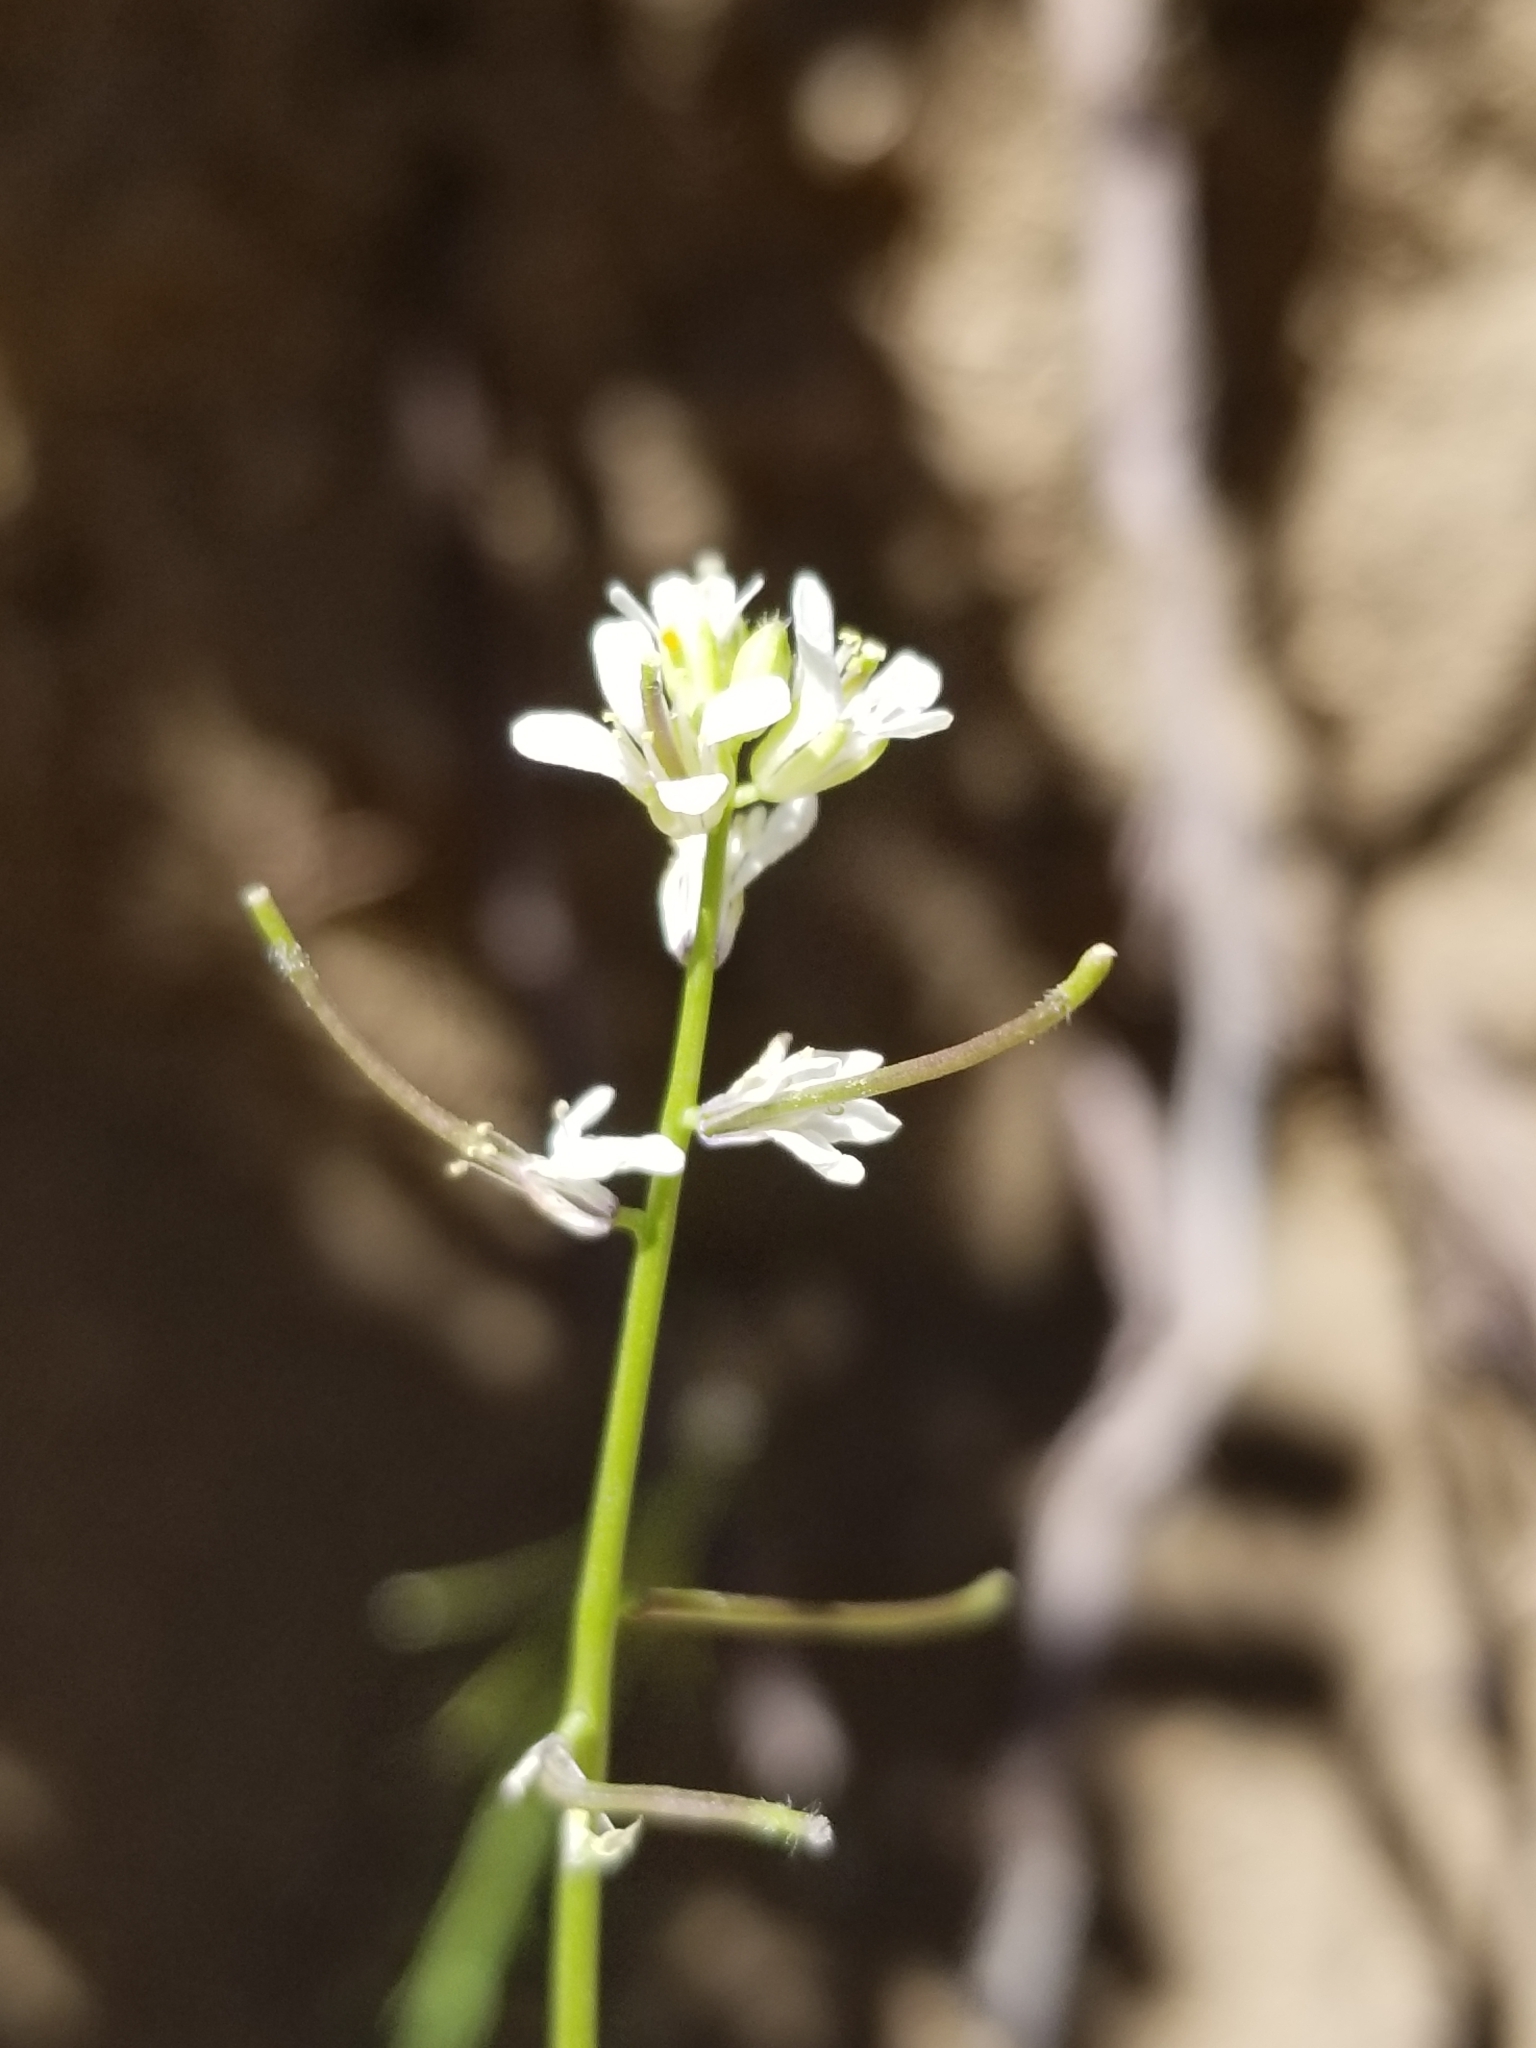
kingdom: Plantae
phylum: Tracheophyta
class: Magnoliopsida
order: Brassicales
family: Brassicaceae
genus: Streptanthus
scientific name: Streptanthus lasiophyllus
